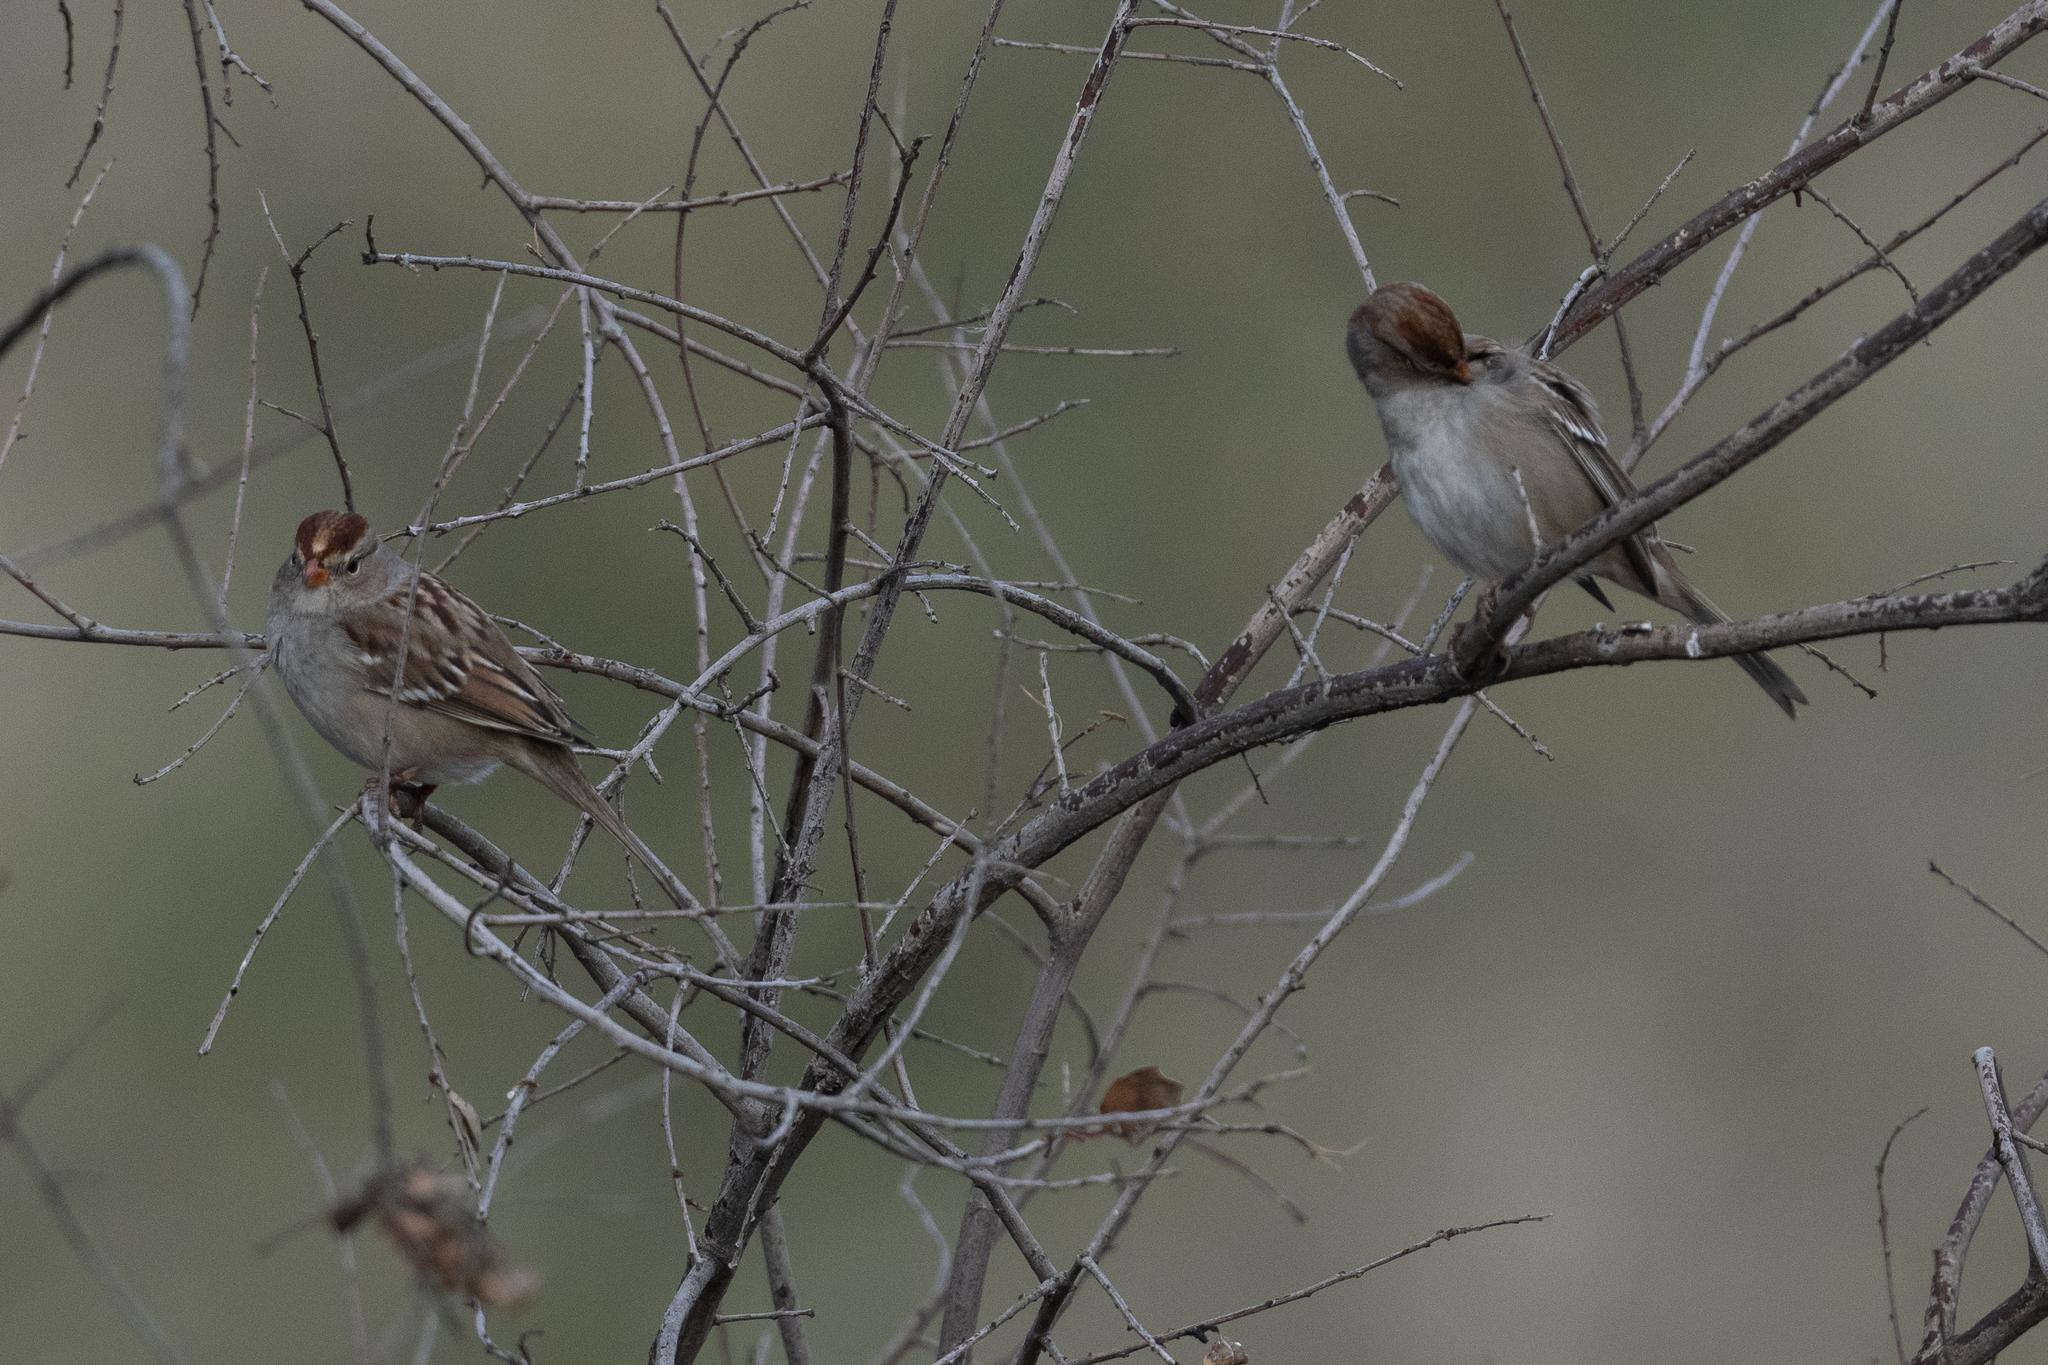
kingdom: Animalia
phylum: Chordata
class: Aves
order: Passeriformes
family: Passerellidae
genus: Zonotrichia
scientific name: Zonotrichia leucophrys
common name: White-crowned sparrow
